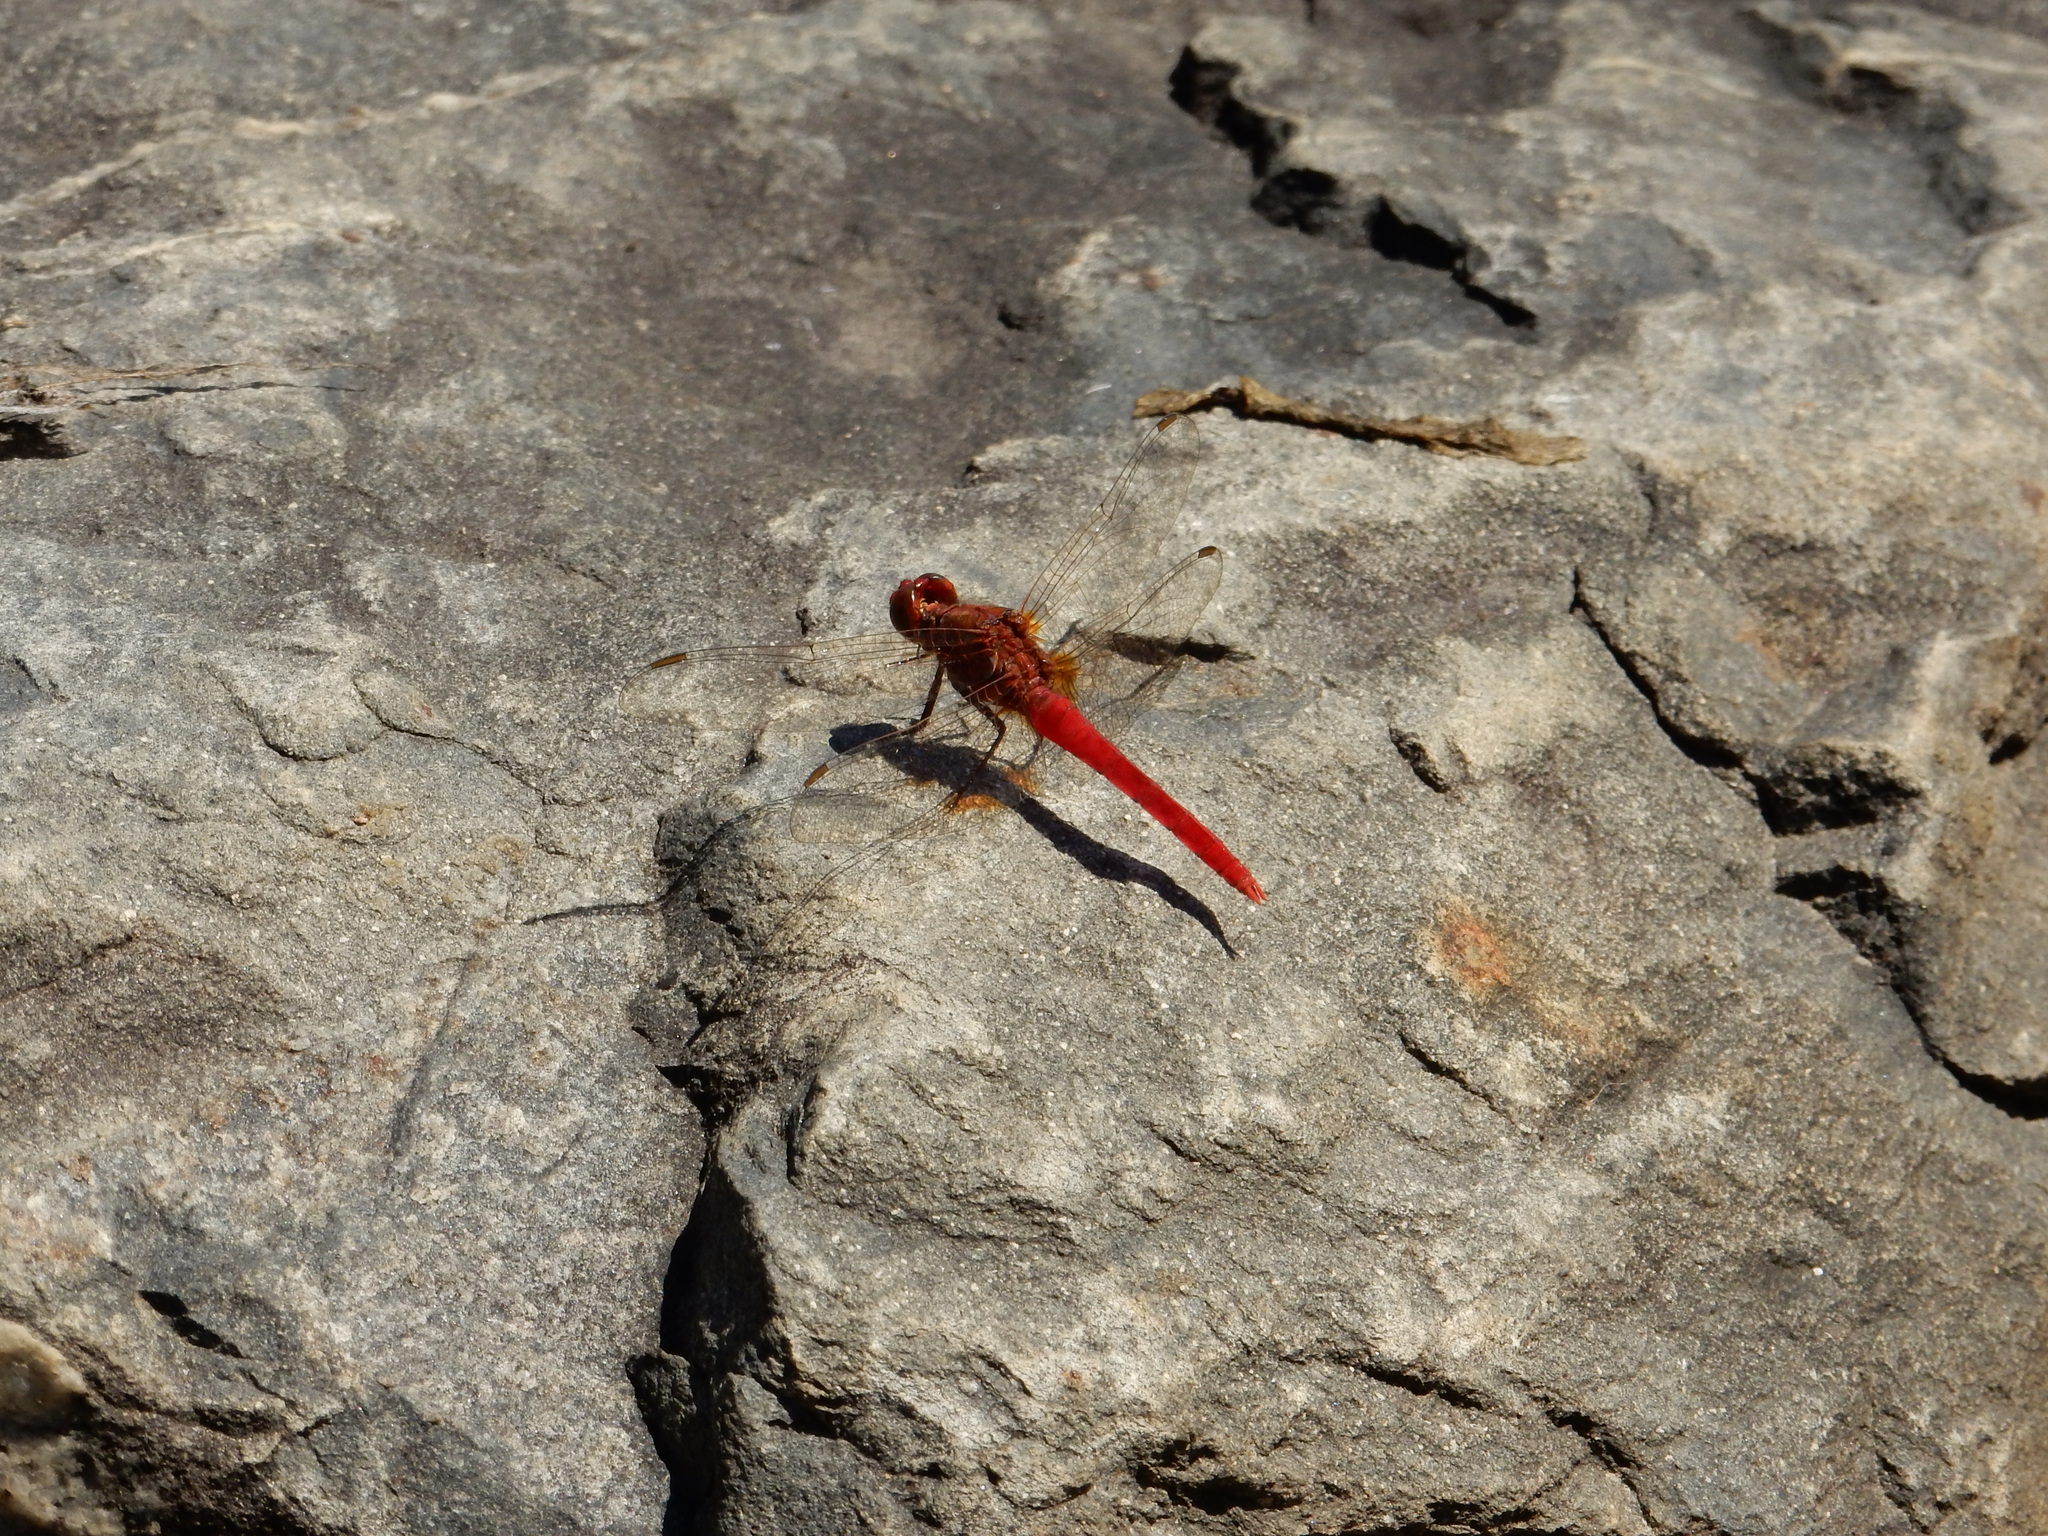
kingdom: Animalia
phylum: Arthropoda
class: Insecta
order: Odonata
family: Libellulidae
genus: Rhodothemis
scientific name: Rhodothemis lieftincki
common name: Red arrow
